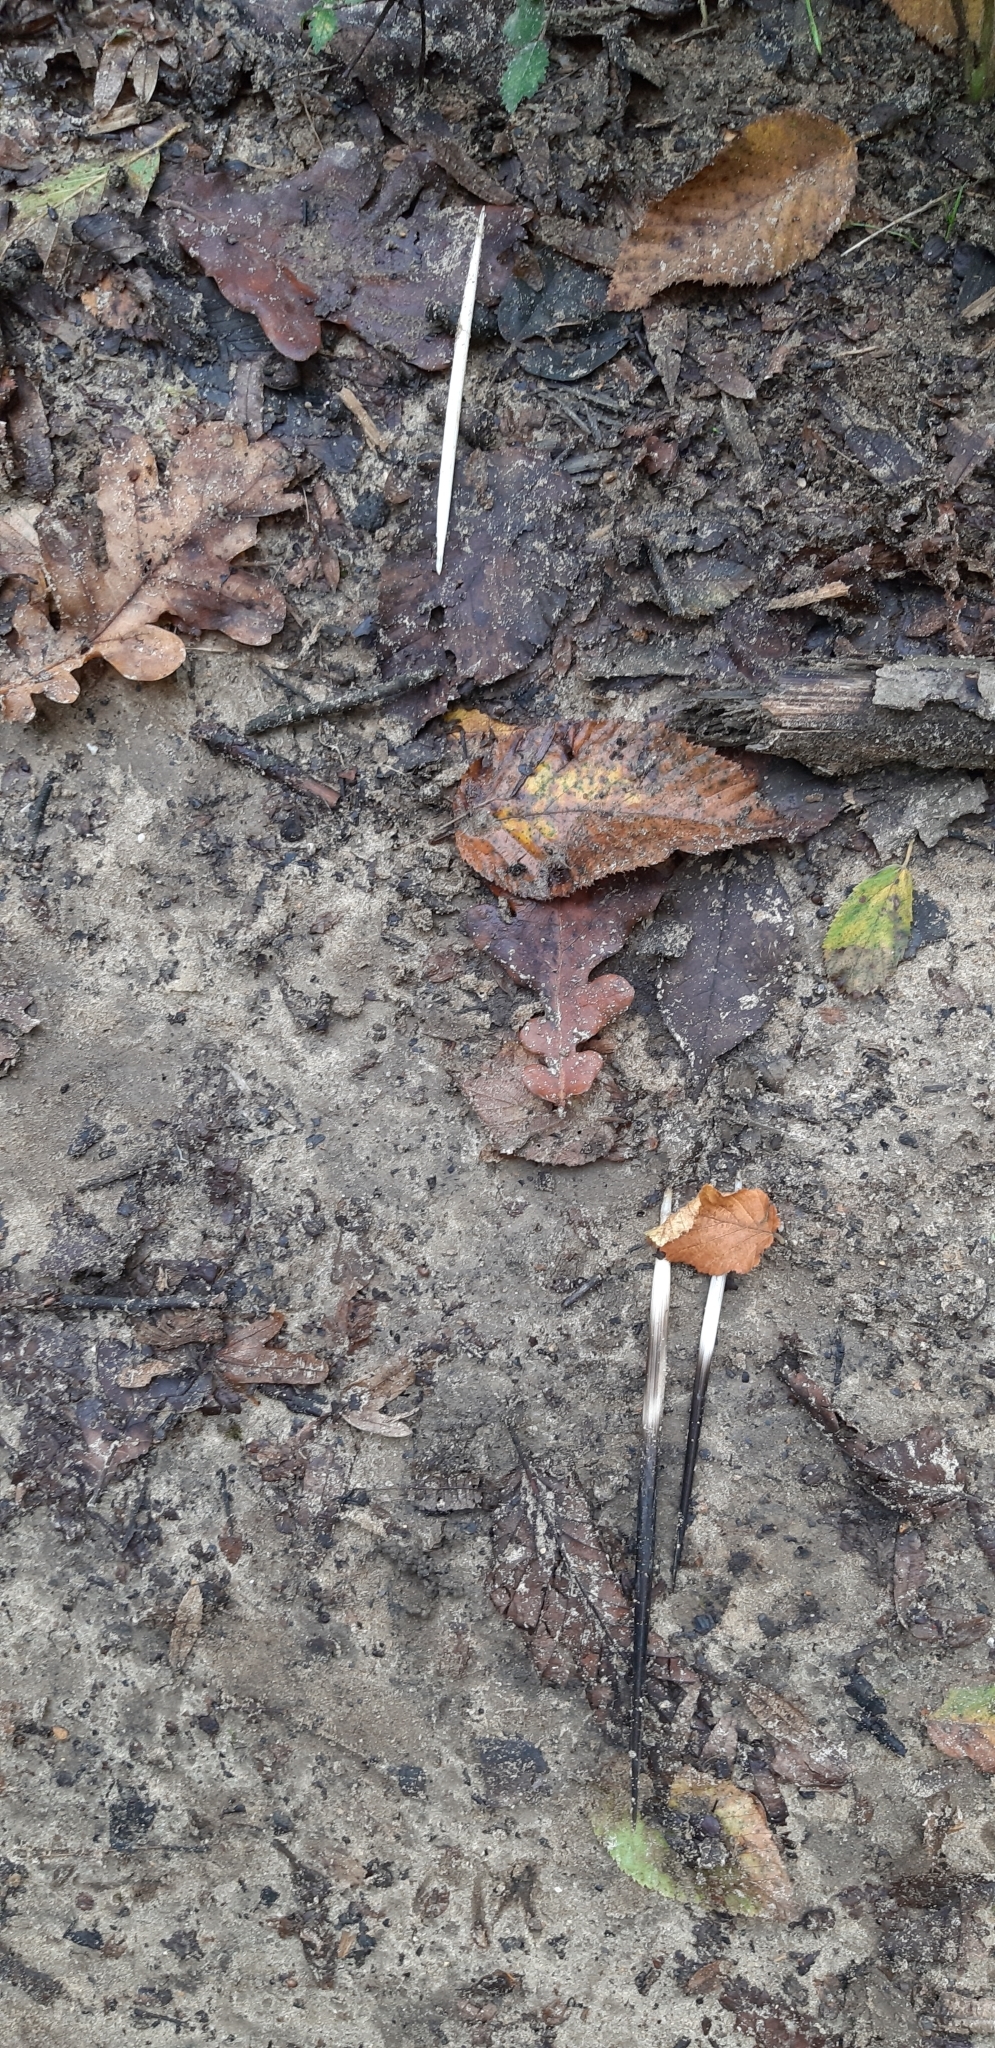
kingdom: Animalia
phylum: Chordata
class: Mammalia
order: Rodentia
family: Hystricidae
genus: Hystrix
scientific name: Hystrix cristata
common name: Crested porcupine
